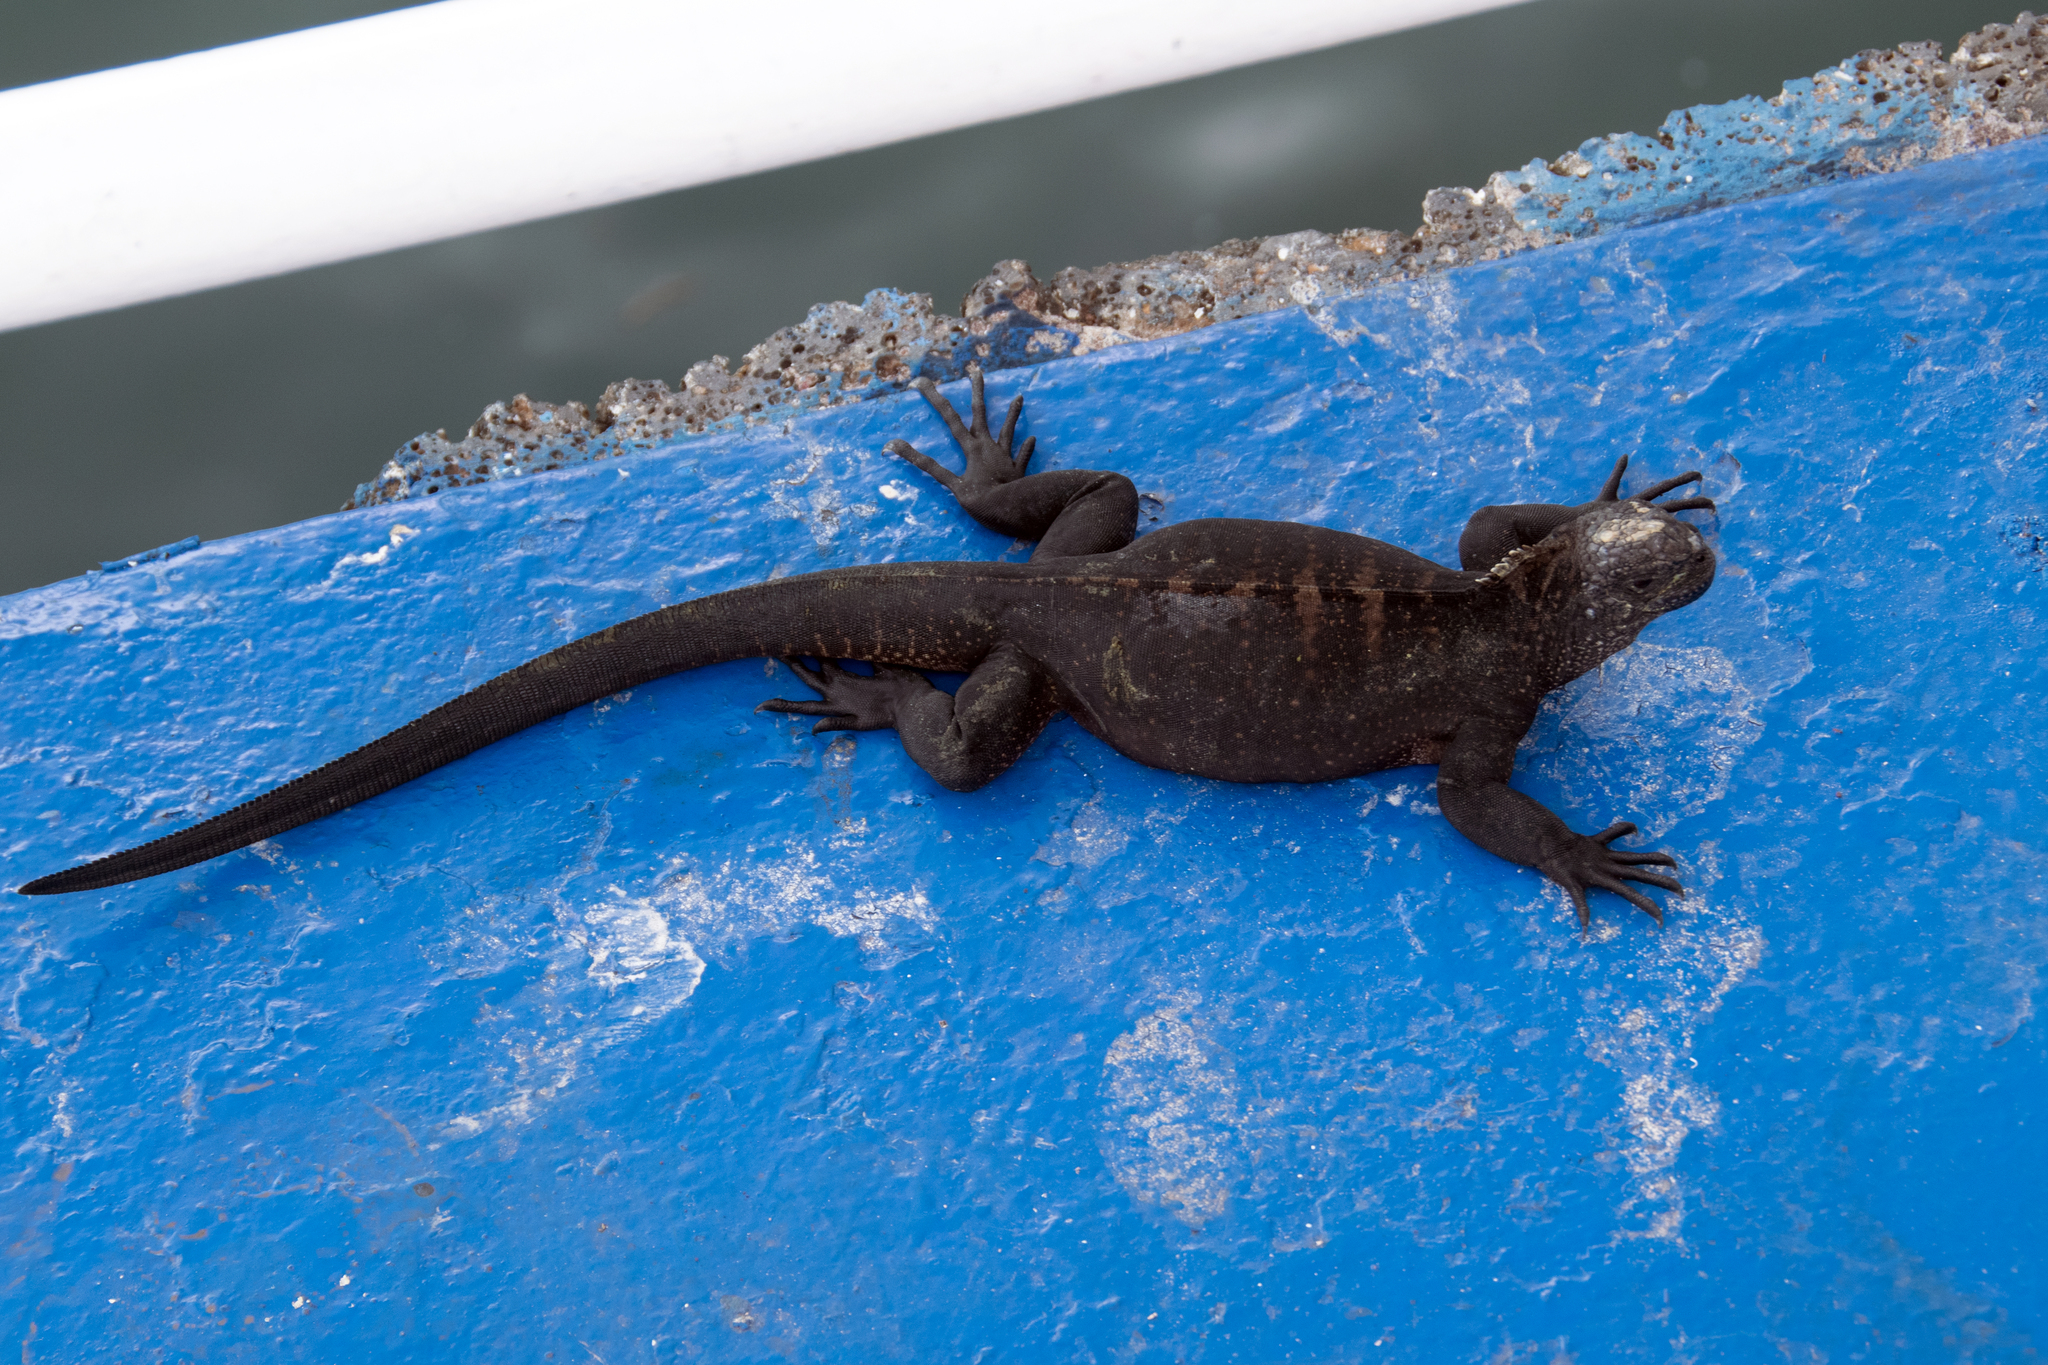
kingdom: Animalia
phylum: Chordata
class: Squamata
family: Iguanidae
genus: Amblyrhynchus
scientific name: Amblyrhynchus cristatus
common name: Marine iguana
